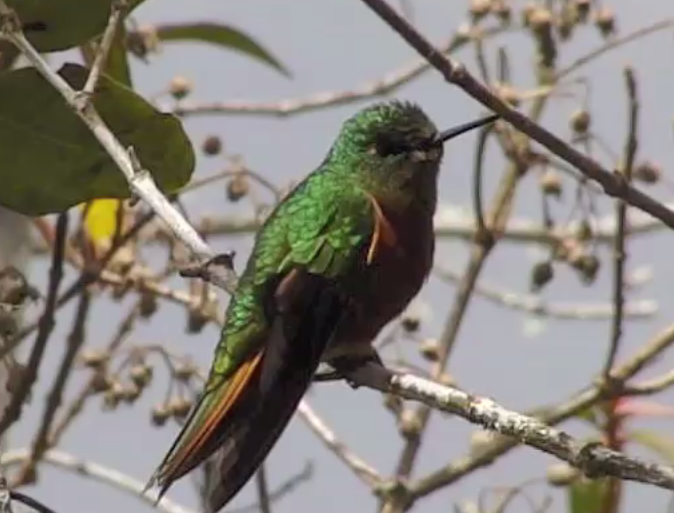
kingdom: Animalia
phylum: Chordata
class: Aves
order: Apodiformes
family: Trochilidae
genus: Boissonneaua
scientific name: Boissonneaua matthewsii
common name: Chestnut-breasted coronet
